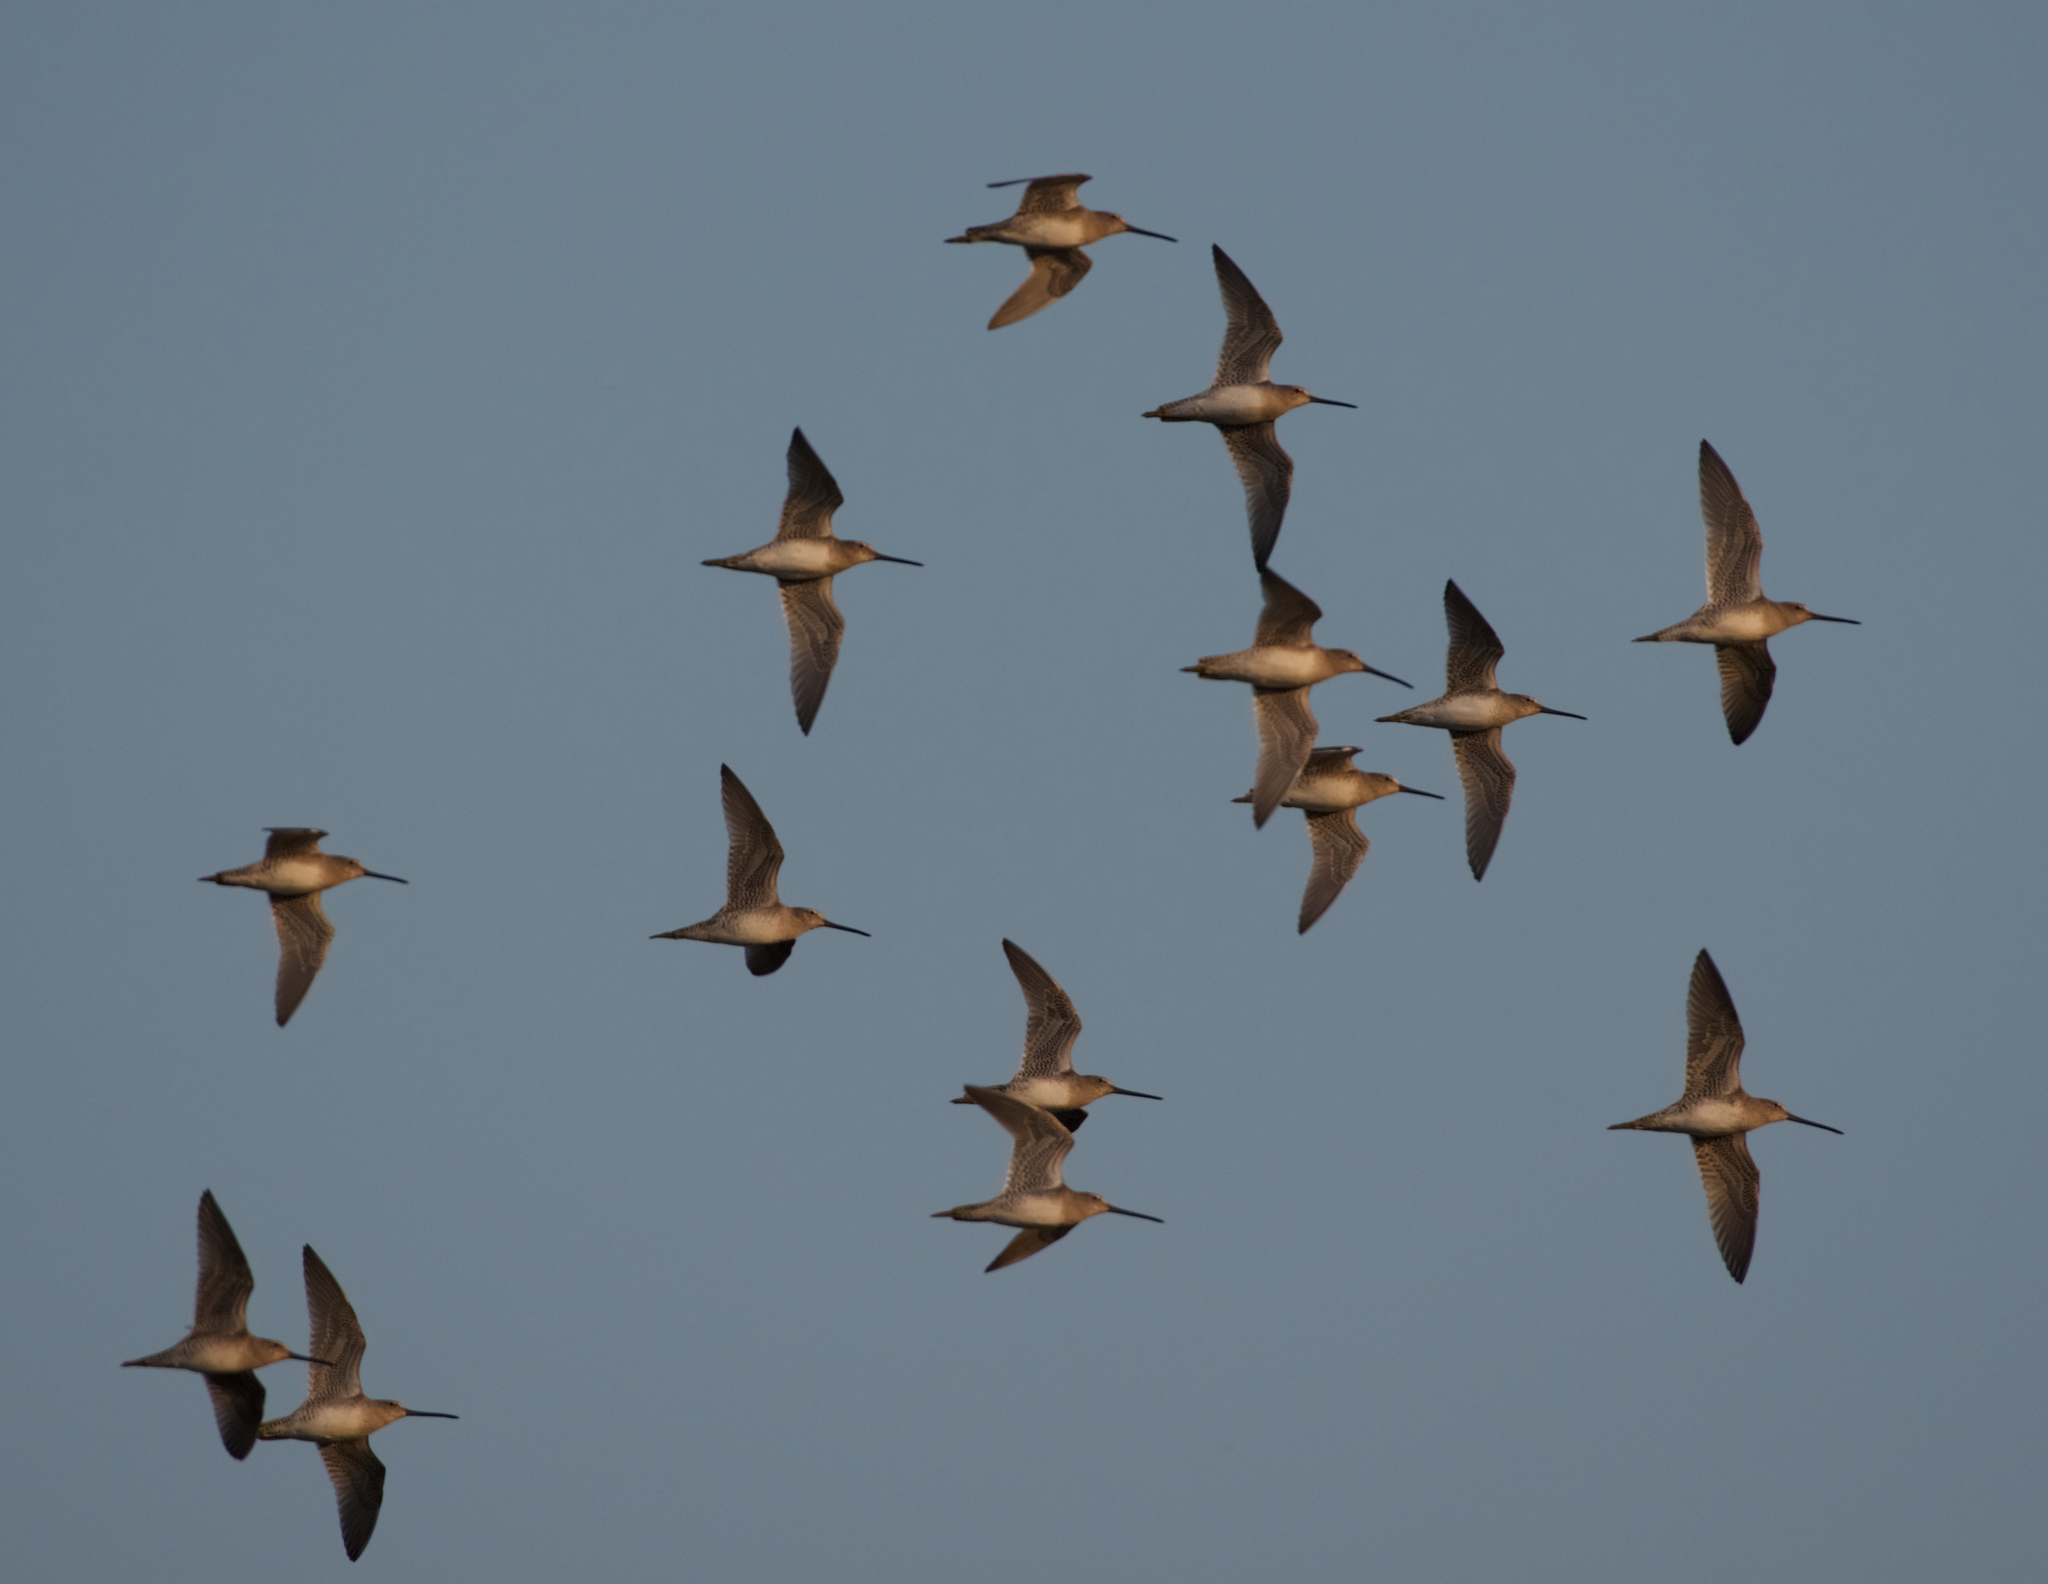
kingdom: Animalia
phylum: Chordata
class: Aves
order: Charadriiformes
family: Scolopacidae
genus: Limnodromus
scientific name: Limnodromus scolopaceus
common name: Long-billed dowitcher
